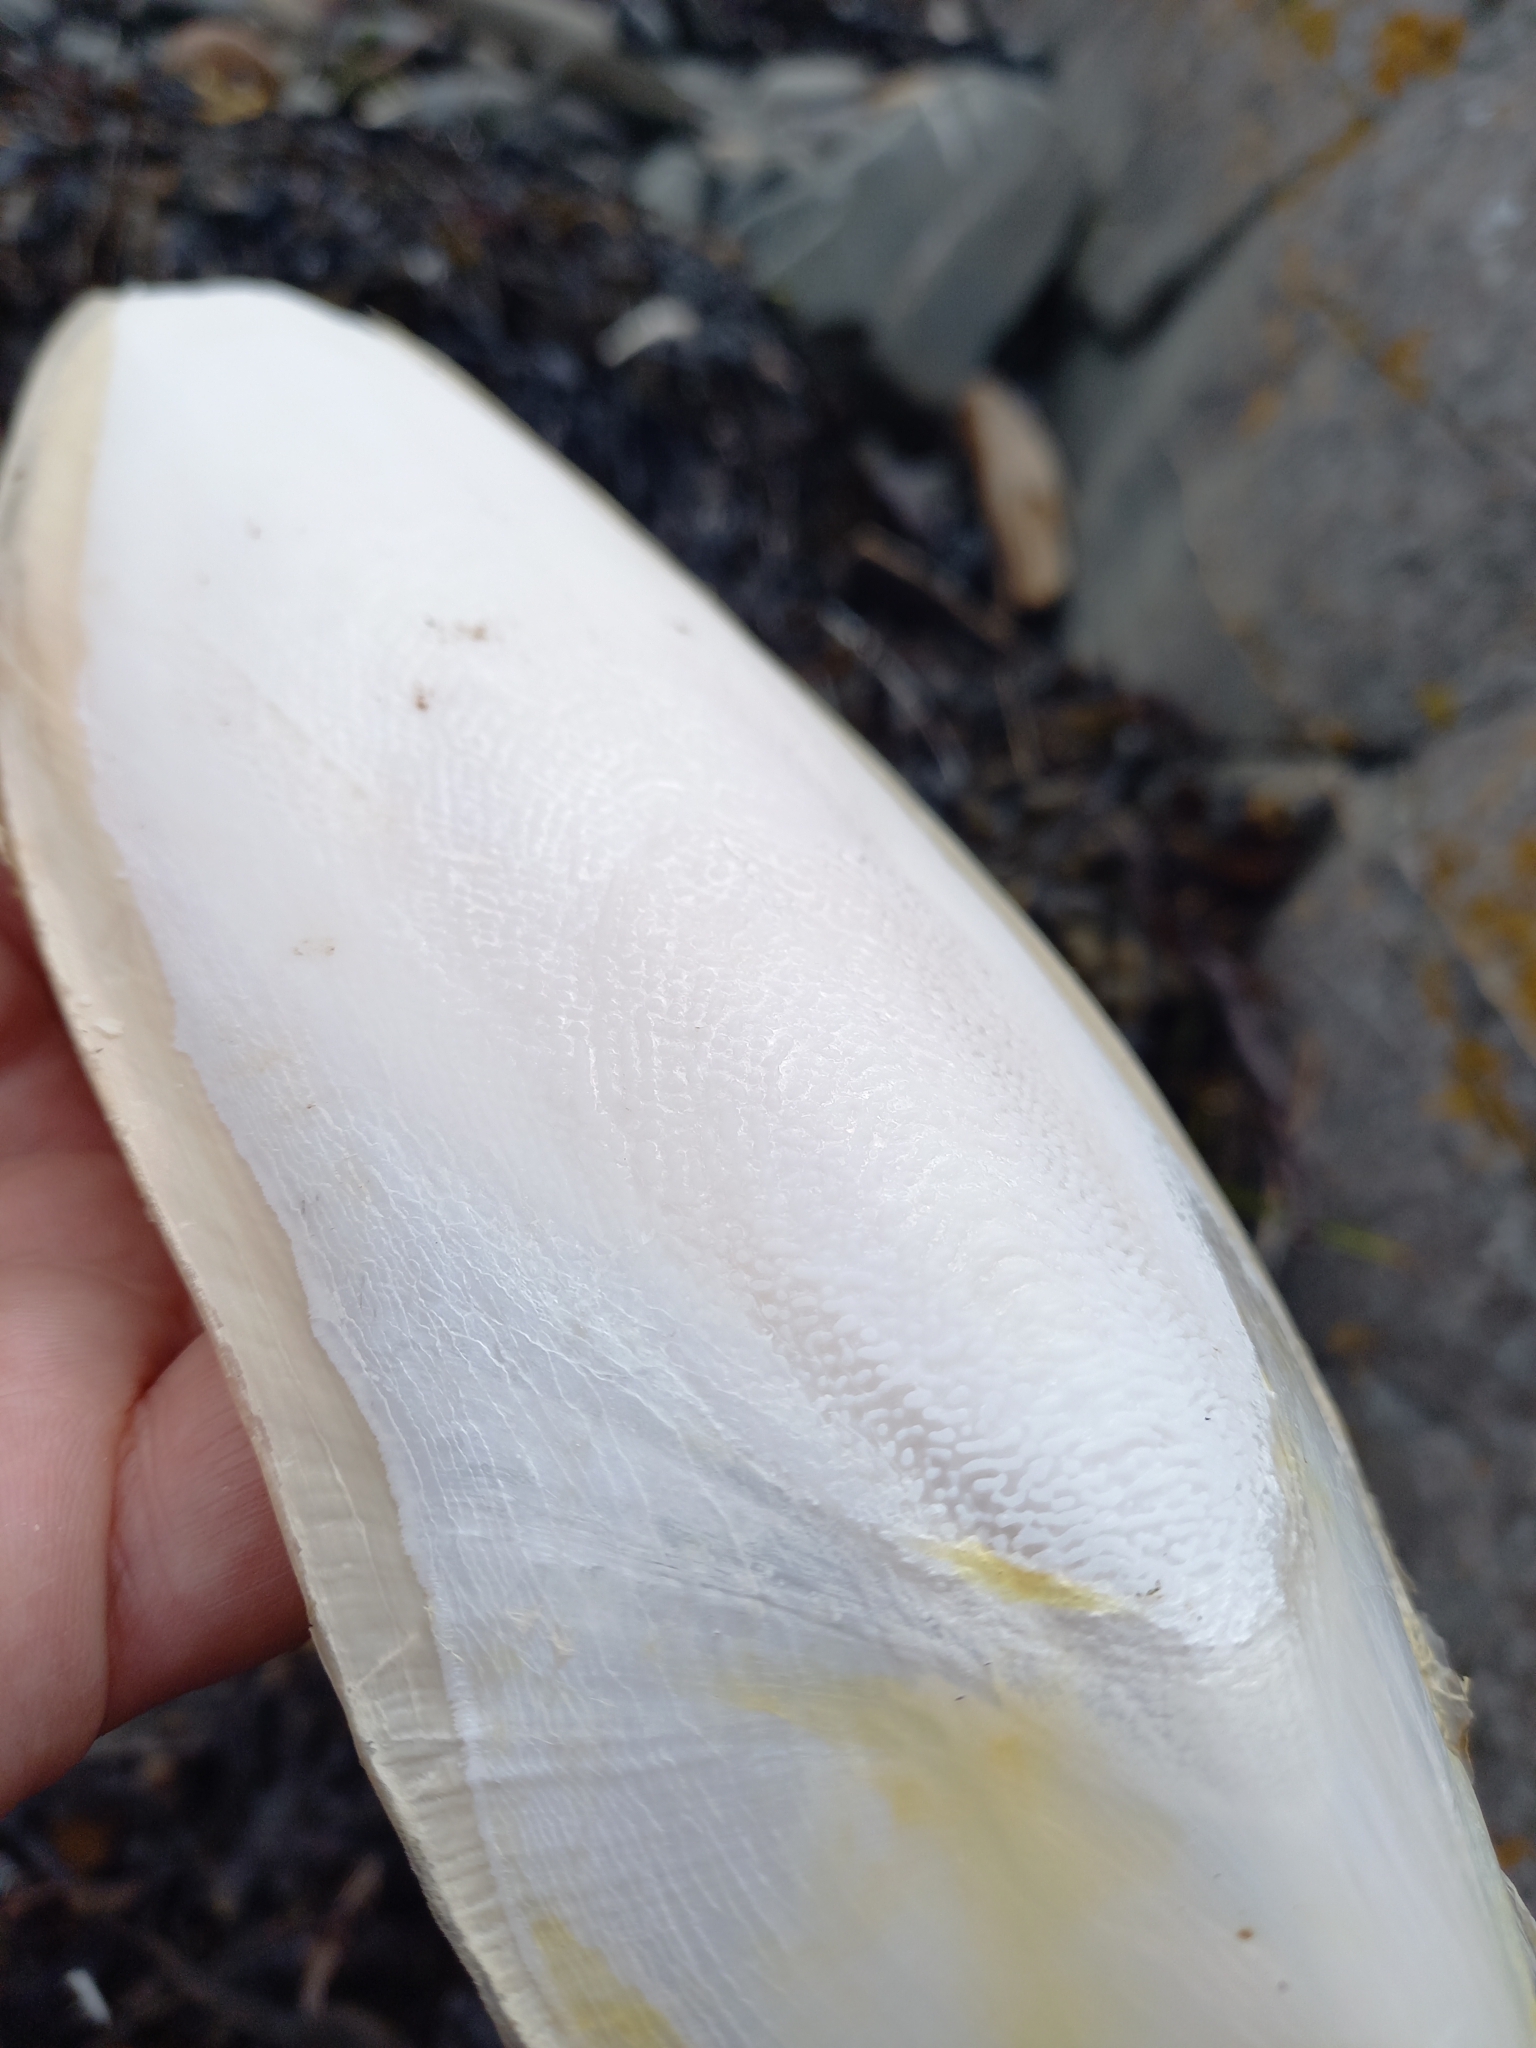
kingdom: Animalia
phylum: Mollusca
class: Cephalopoda
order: Sepiida
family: Sepiidae
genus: Sepia
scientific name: Sepia officinalis
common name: Common cuttlefish
